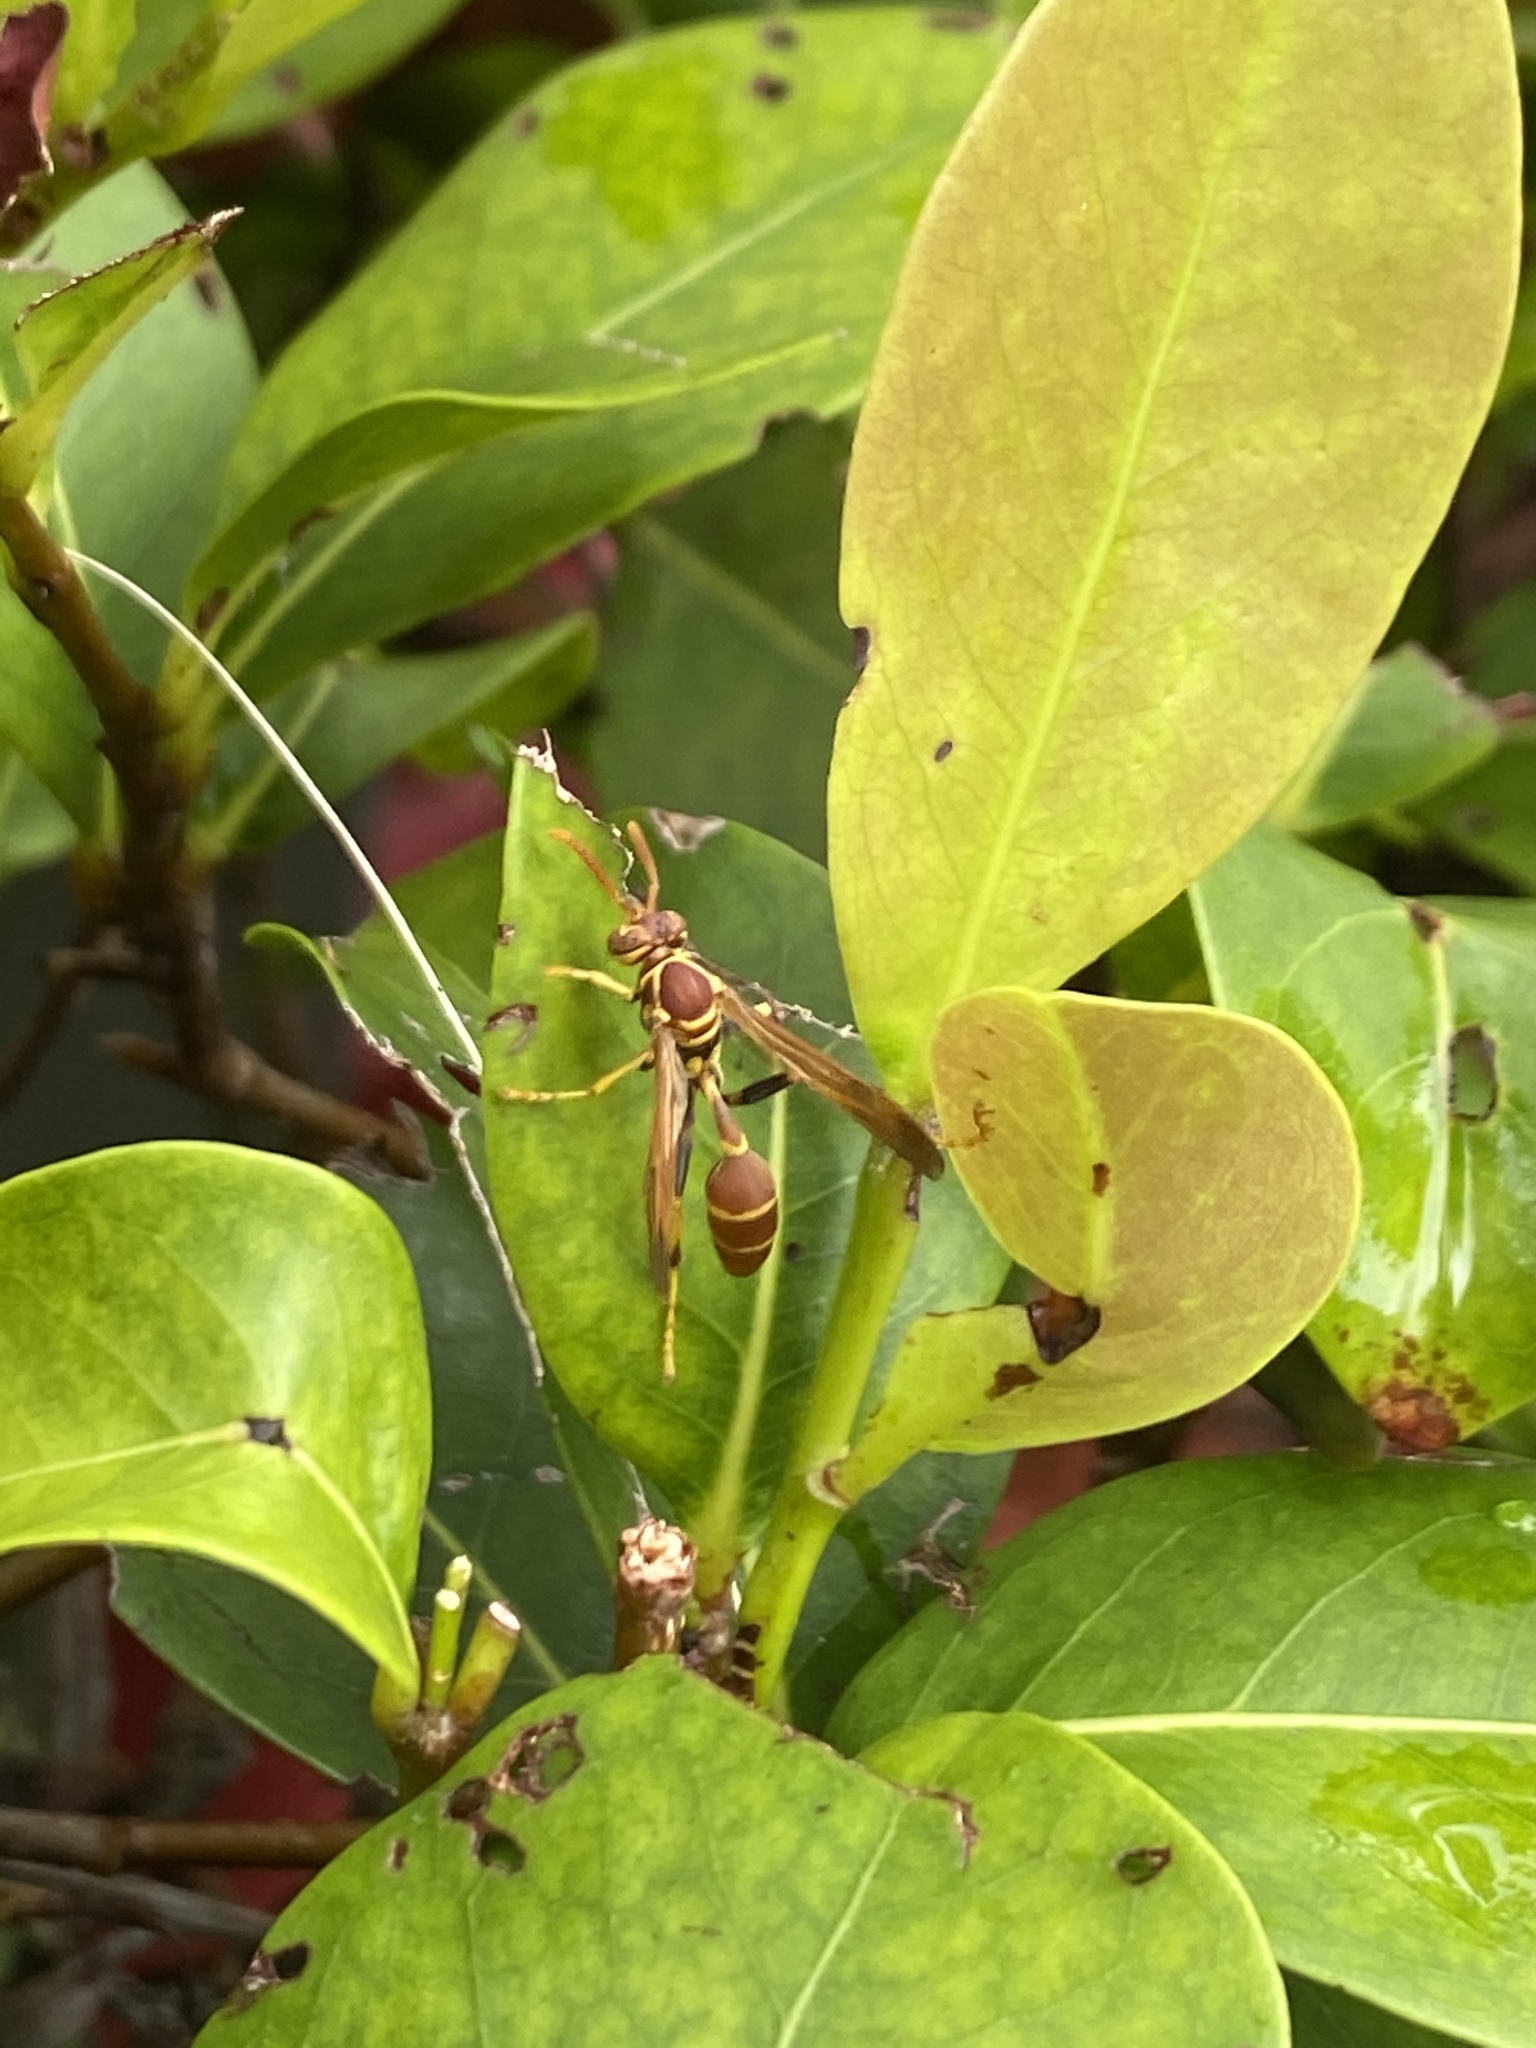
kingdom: Animalia
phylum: Arthropoda
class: Insecta
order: Hymenoptera
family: Vespidae
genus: Mischocyttarus
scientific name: Mischocyttarus mexicanus
